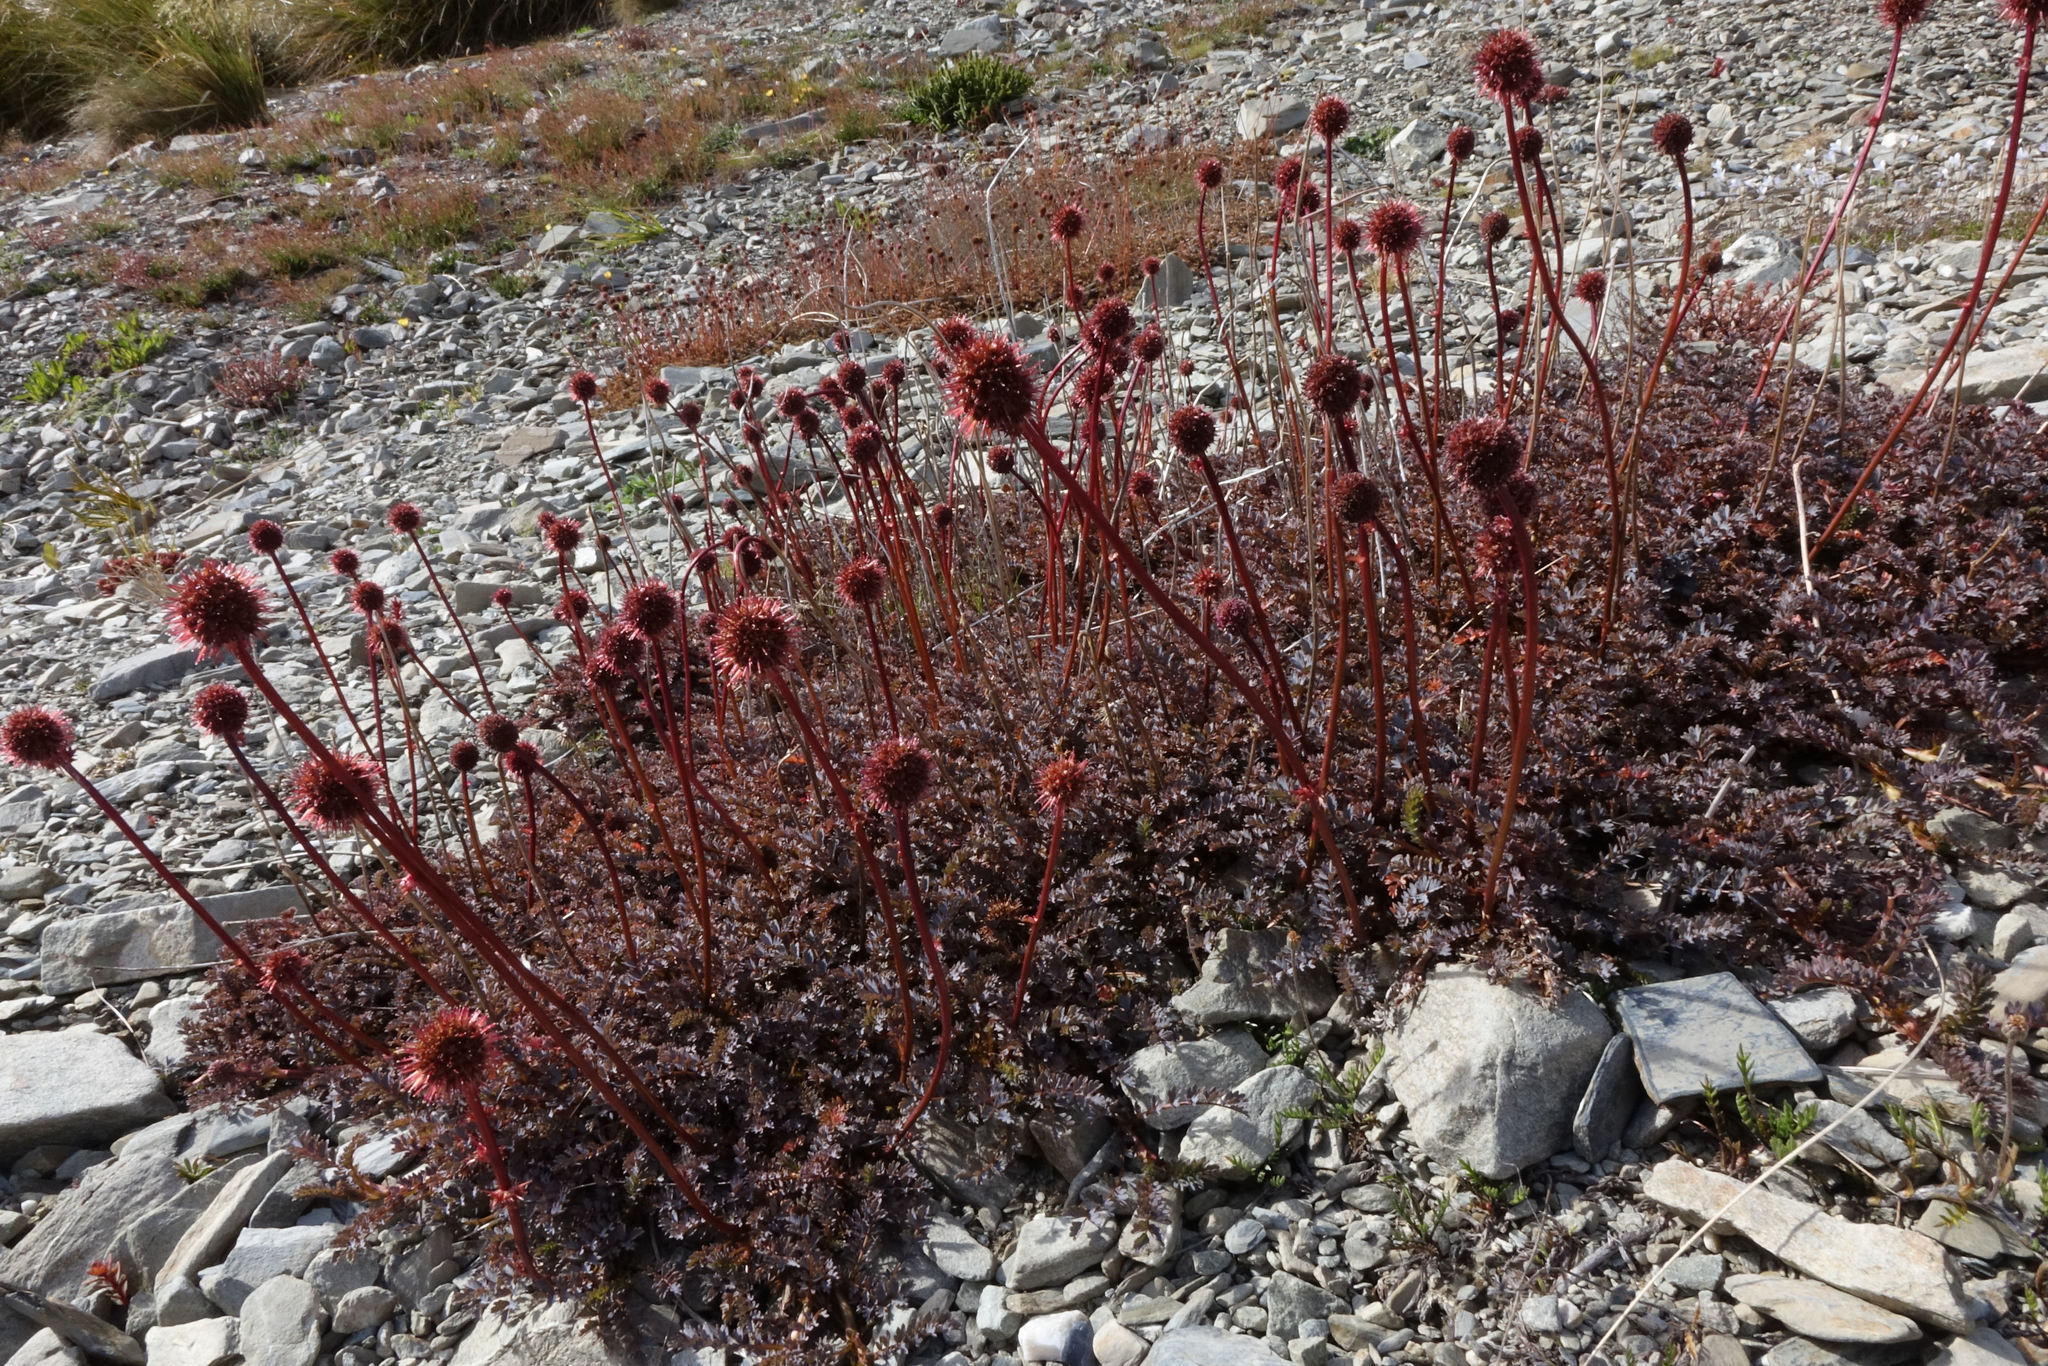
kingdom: Plantae
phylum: Tracheophyta
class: Magnoliopsida
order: Rosales
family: Rosaceae
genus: Acaena
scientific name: Acaena saccaticupula
